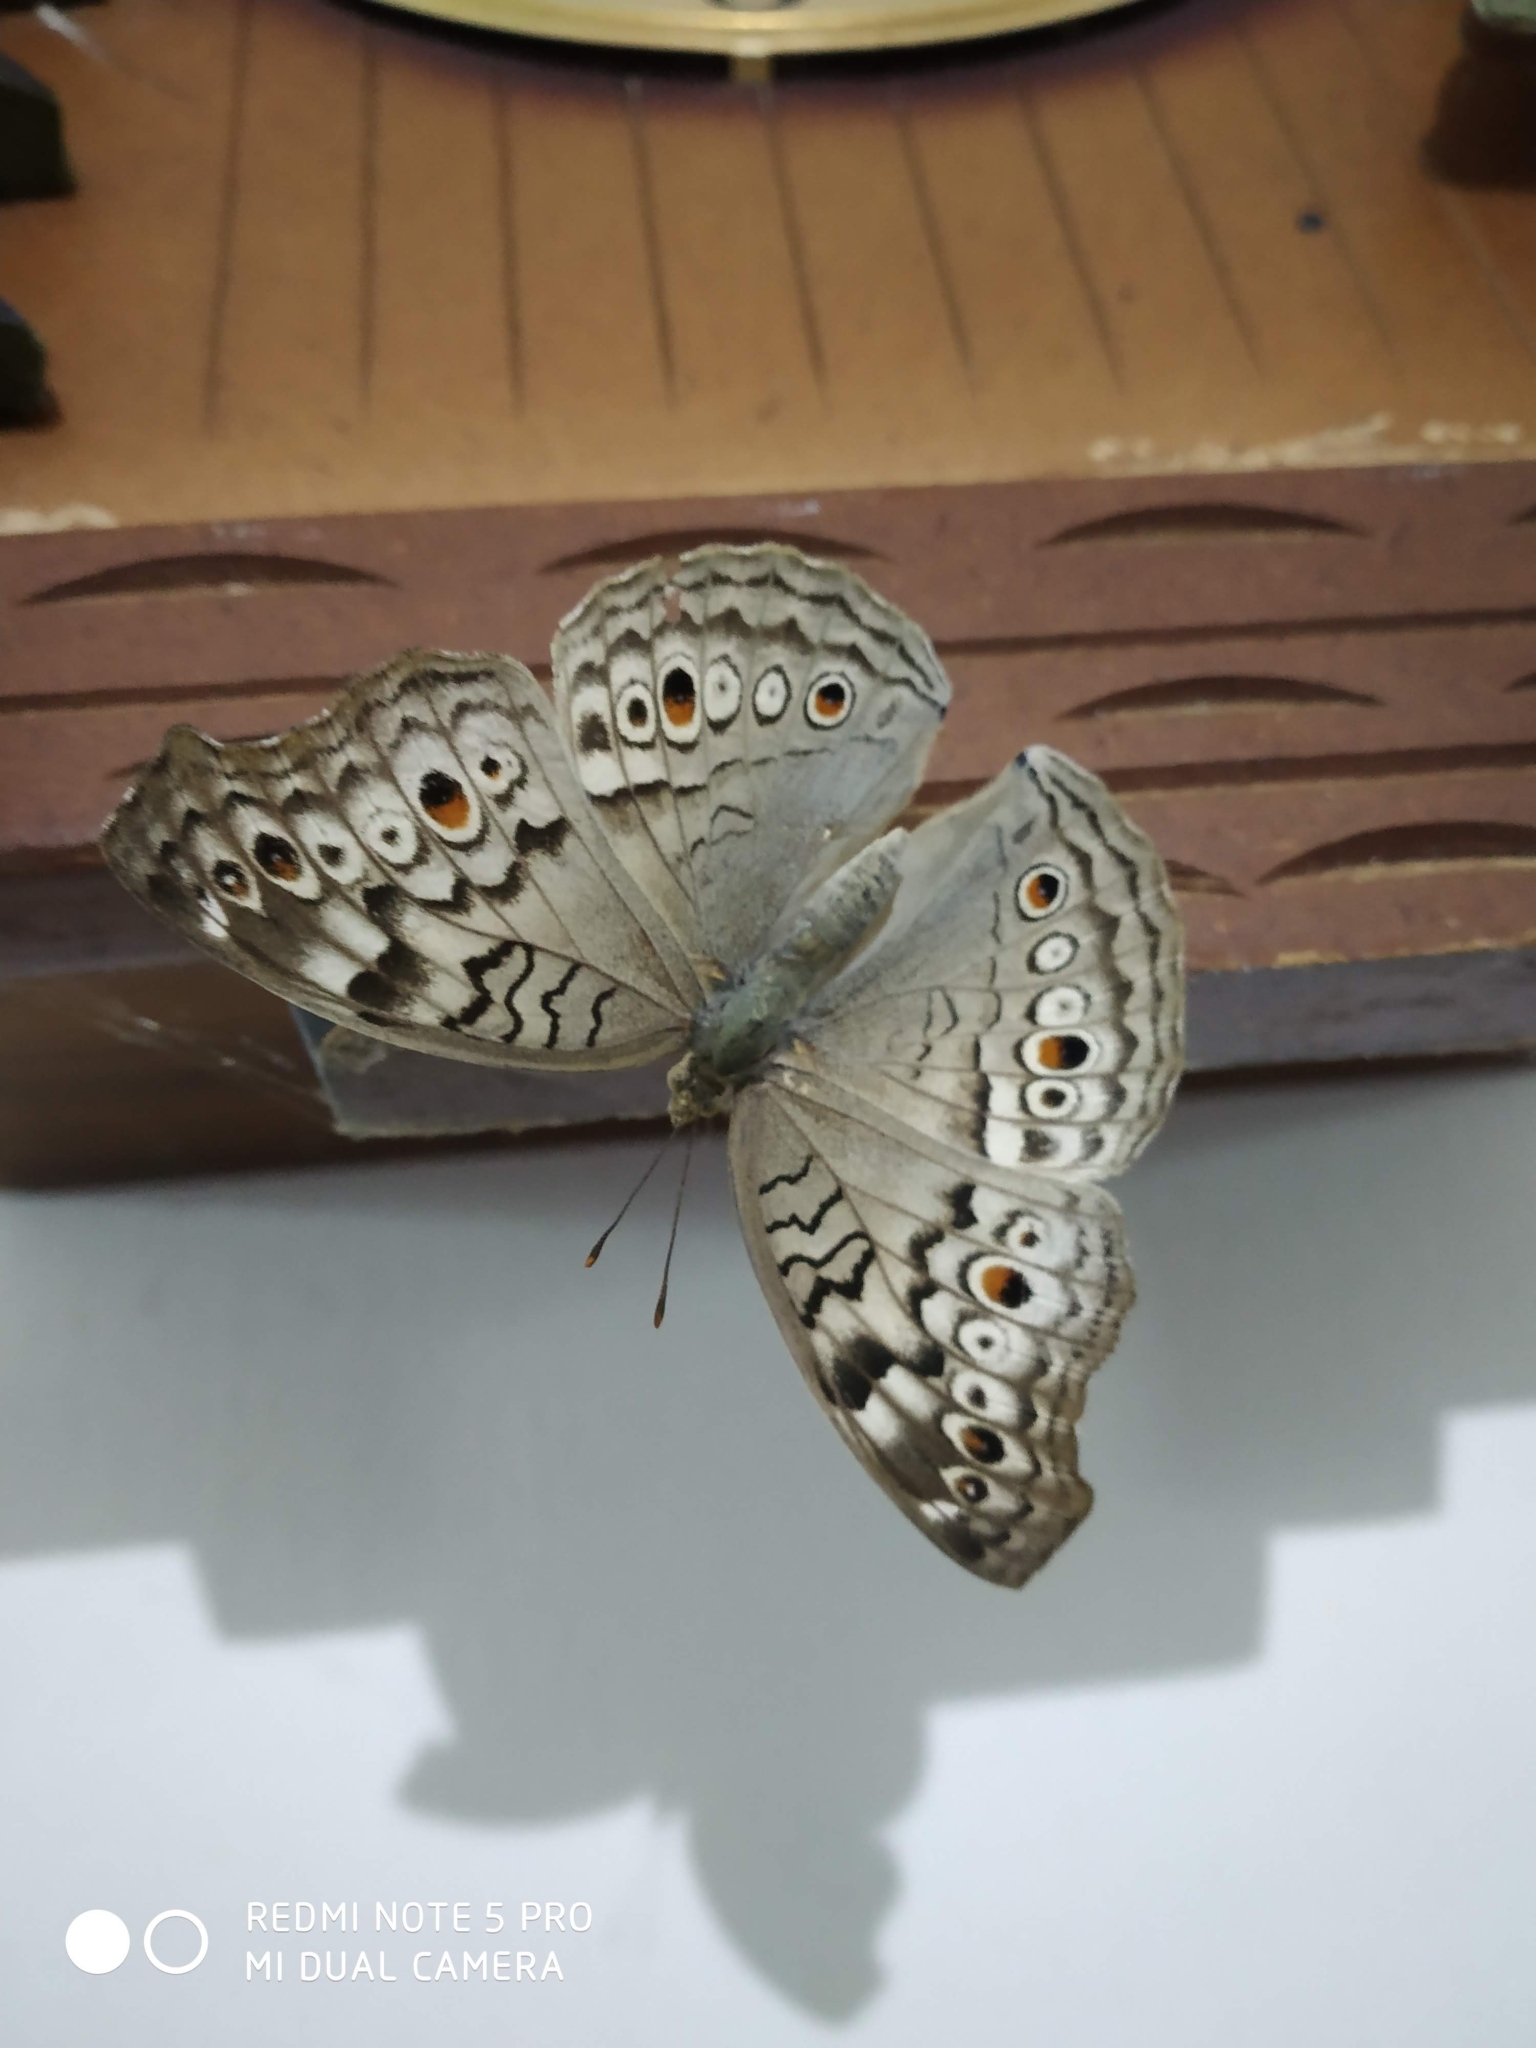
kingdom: Animalia
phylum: Arthropoda
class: Insecta
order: Lepidoptera
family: Nymphalidae
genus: Junonia
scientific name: Junonia atlites
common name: Grey pansy
